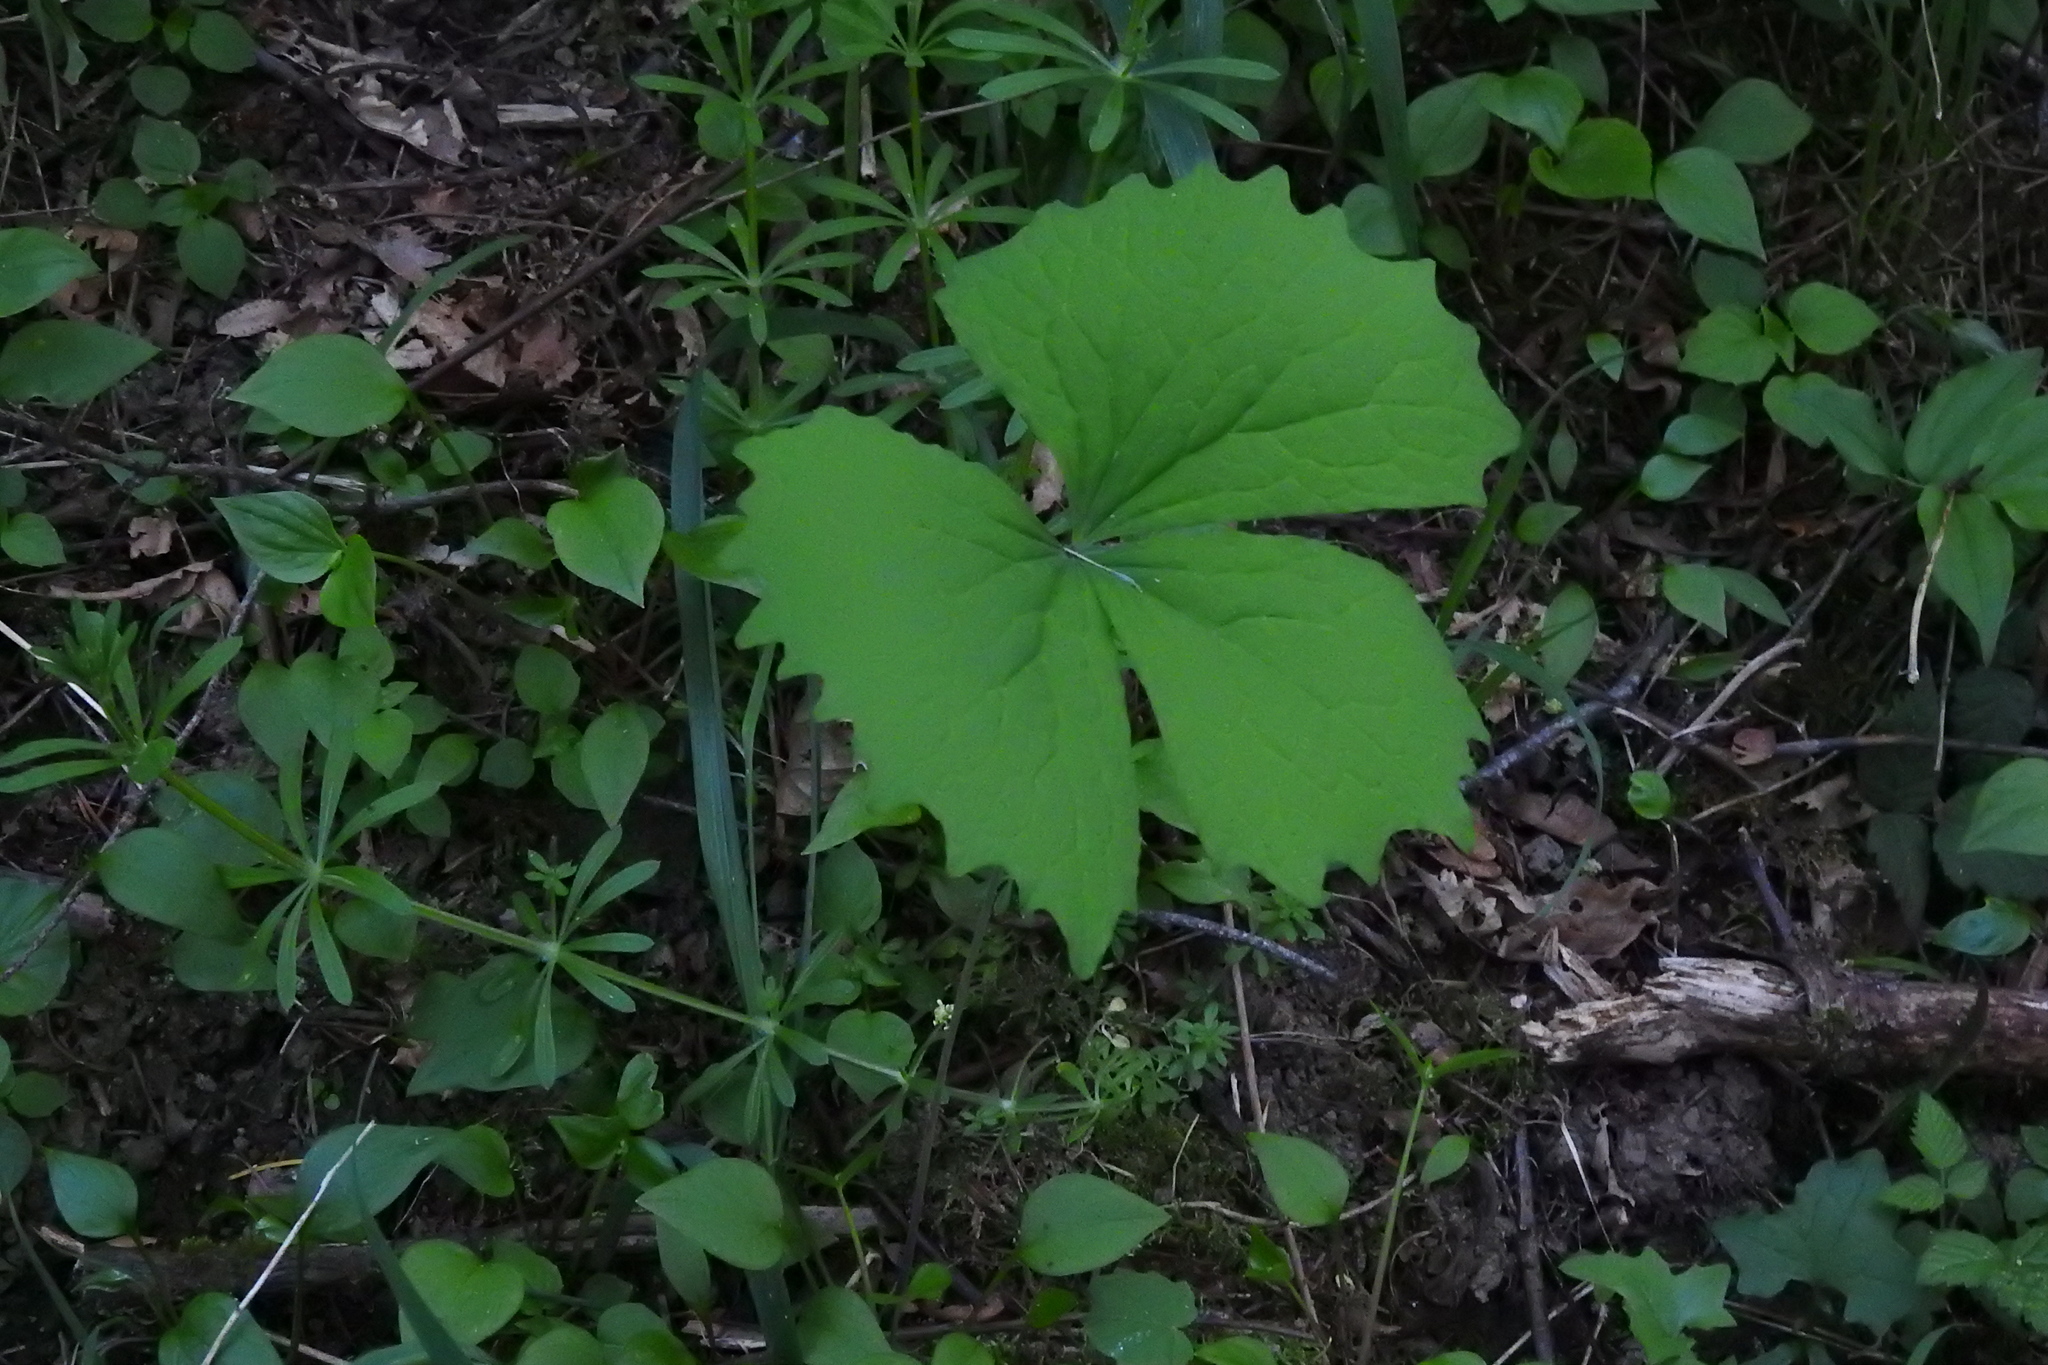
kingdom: Plantae
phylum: Tracheophyta
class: Magnoliopsida
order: Ranunculales
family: Berberidaceae
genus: Achlys
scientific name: Achlys triphylla
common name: Vanilla-leaf
